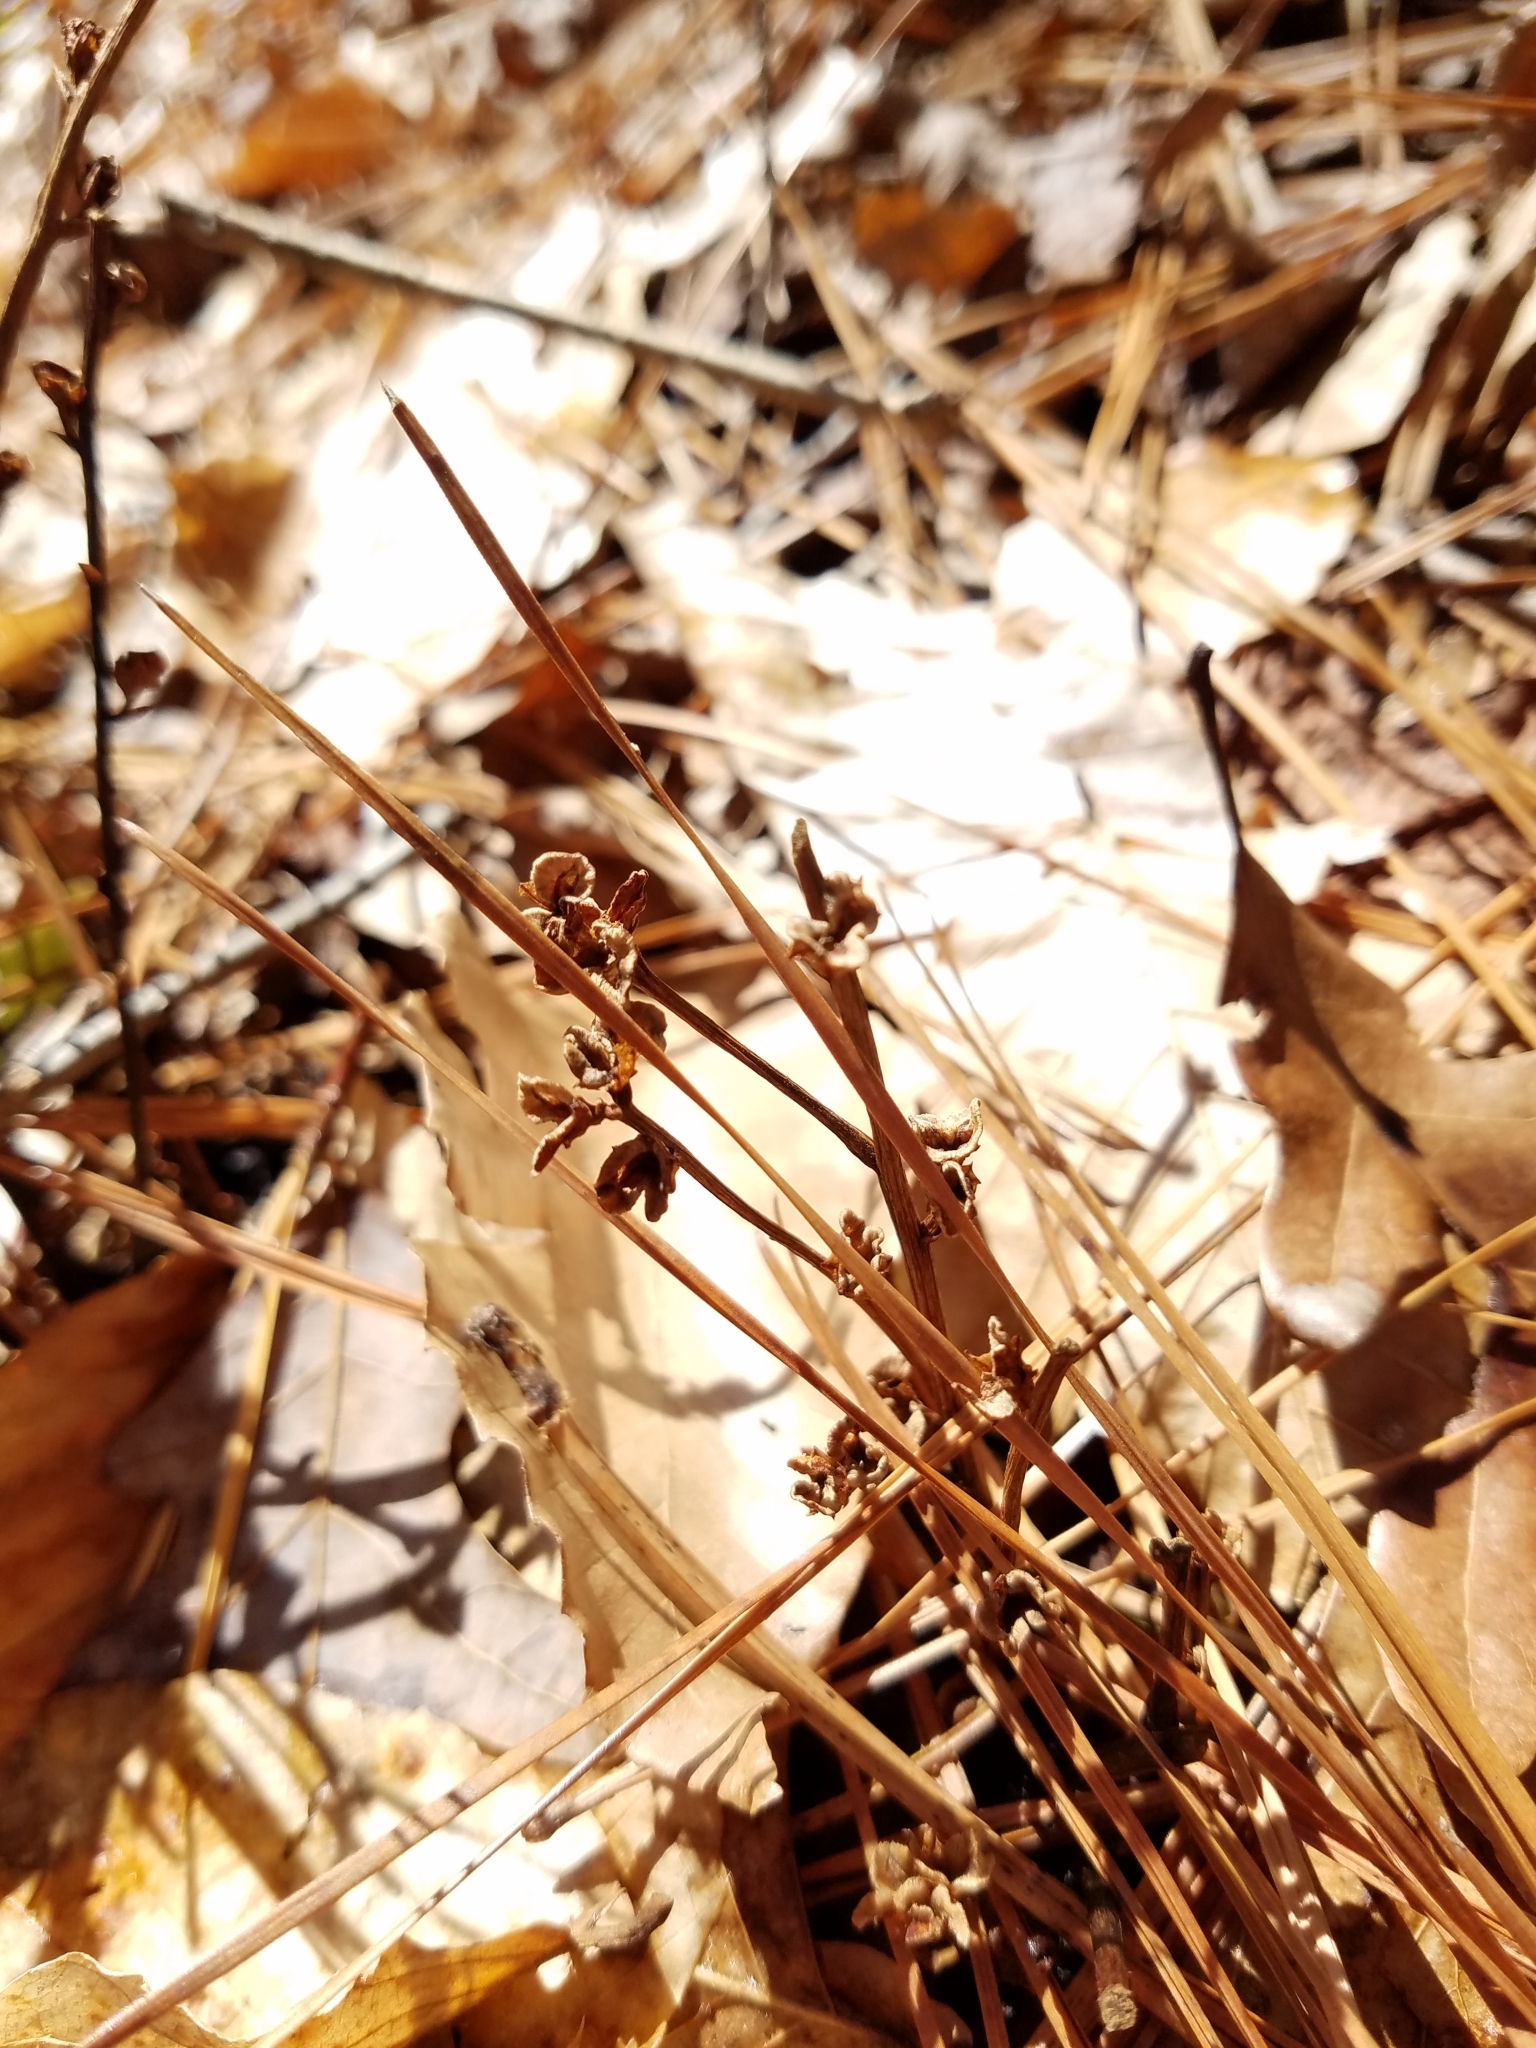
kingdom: Plantae
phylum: Tracheophyta
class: Magnoliopsida
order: Lamiales
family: Orobanchaceae
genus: Epifagus
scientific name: Epifagus virginiana
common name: Beechdrops
